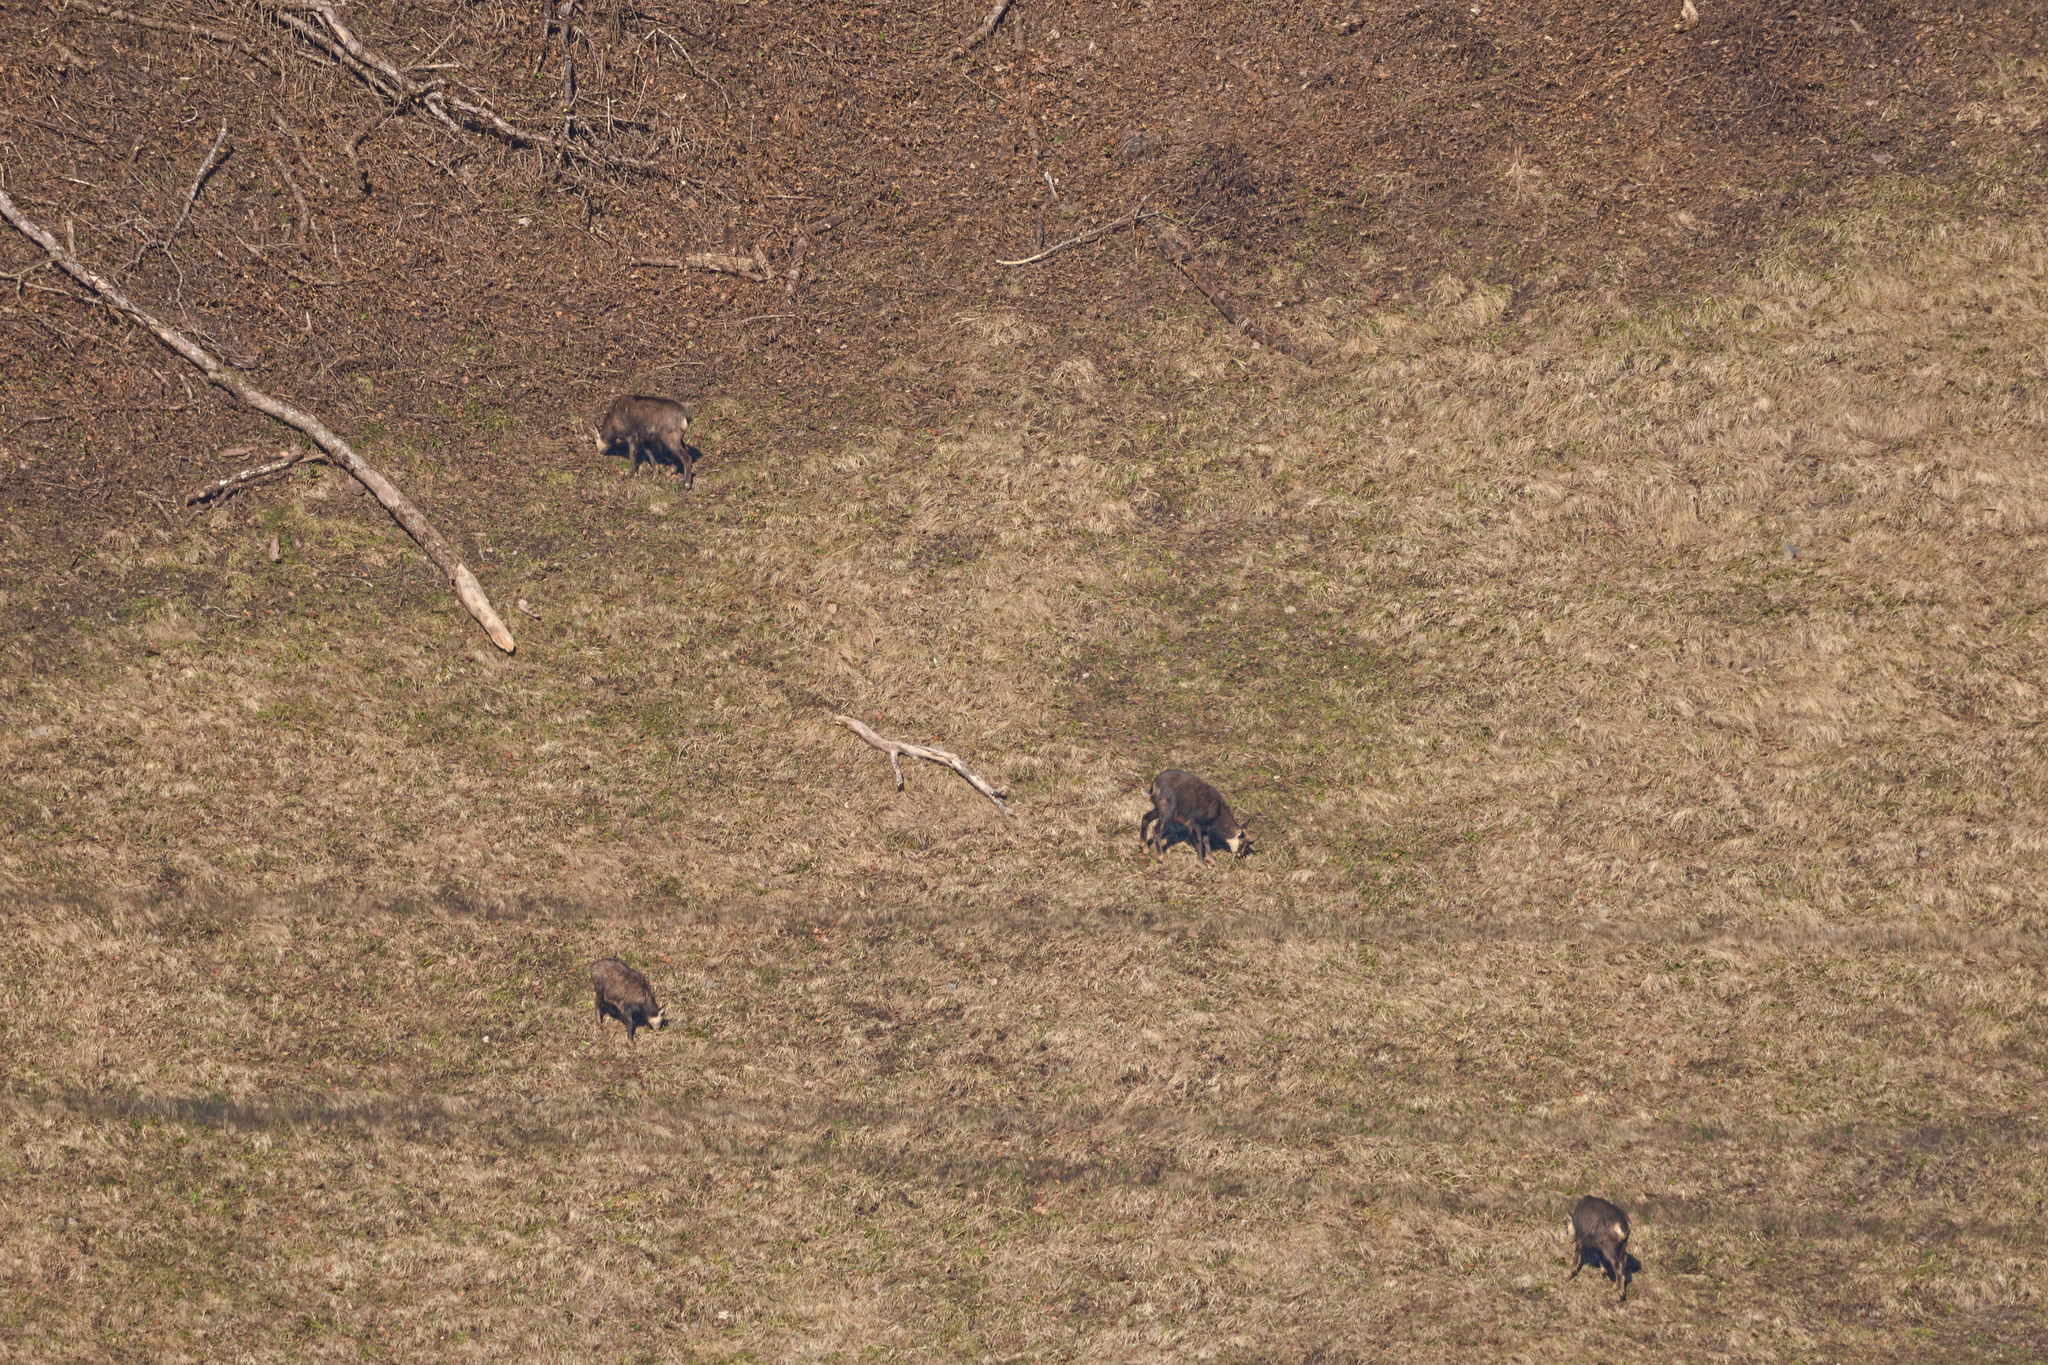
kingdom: Animalia
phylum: Chordata
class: Mammalia
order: Artiodactyla
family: Bovidae
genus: Rupicapra
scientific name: Rupicapra rupicapra
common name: Chamois
